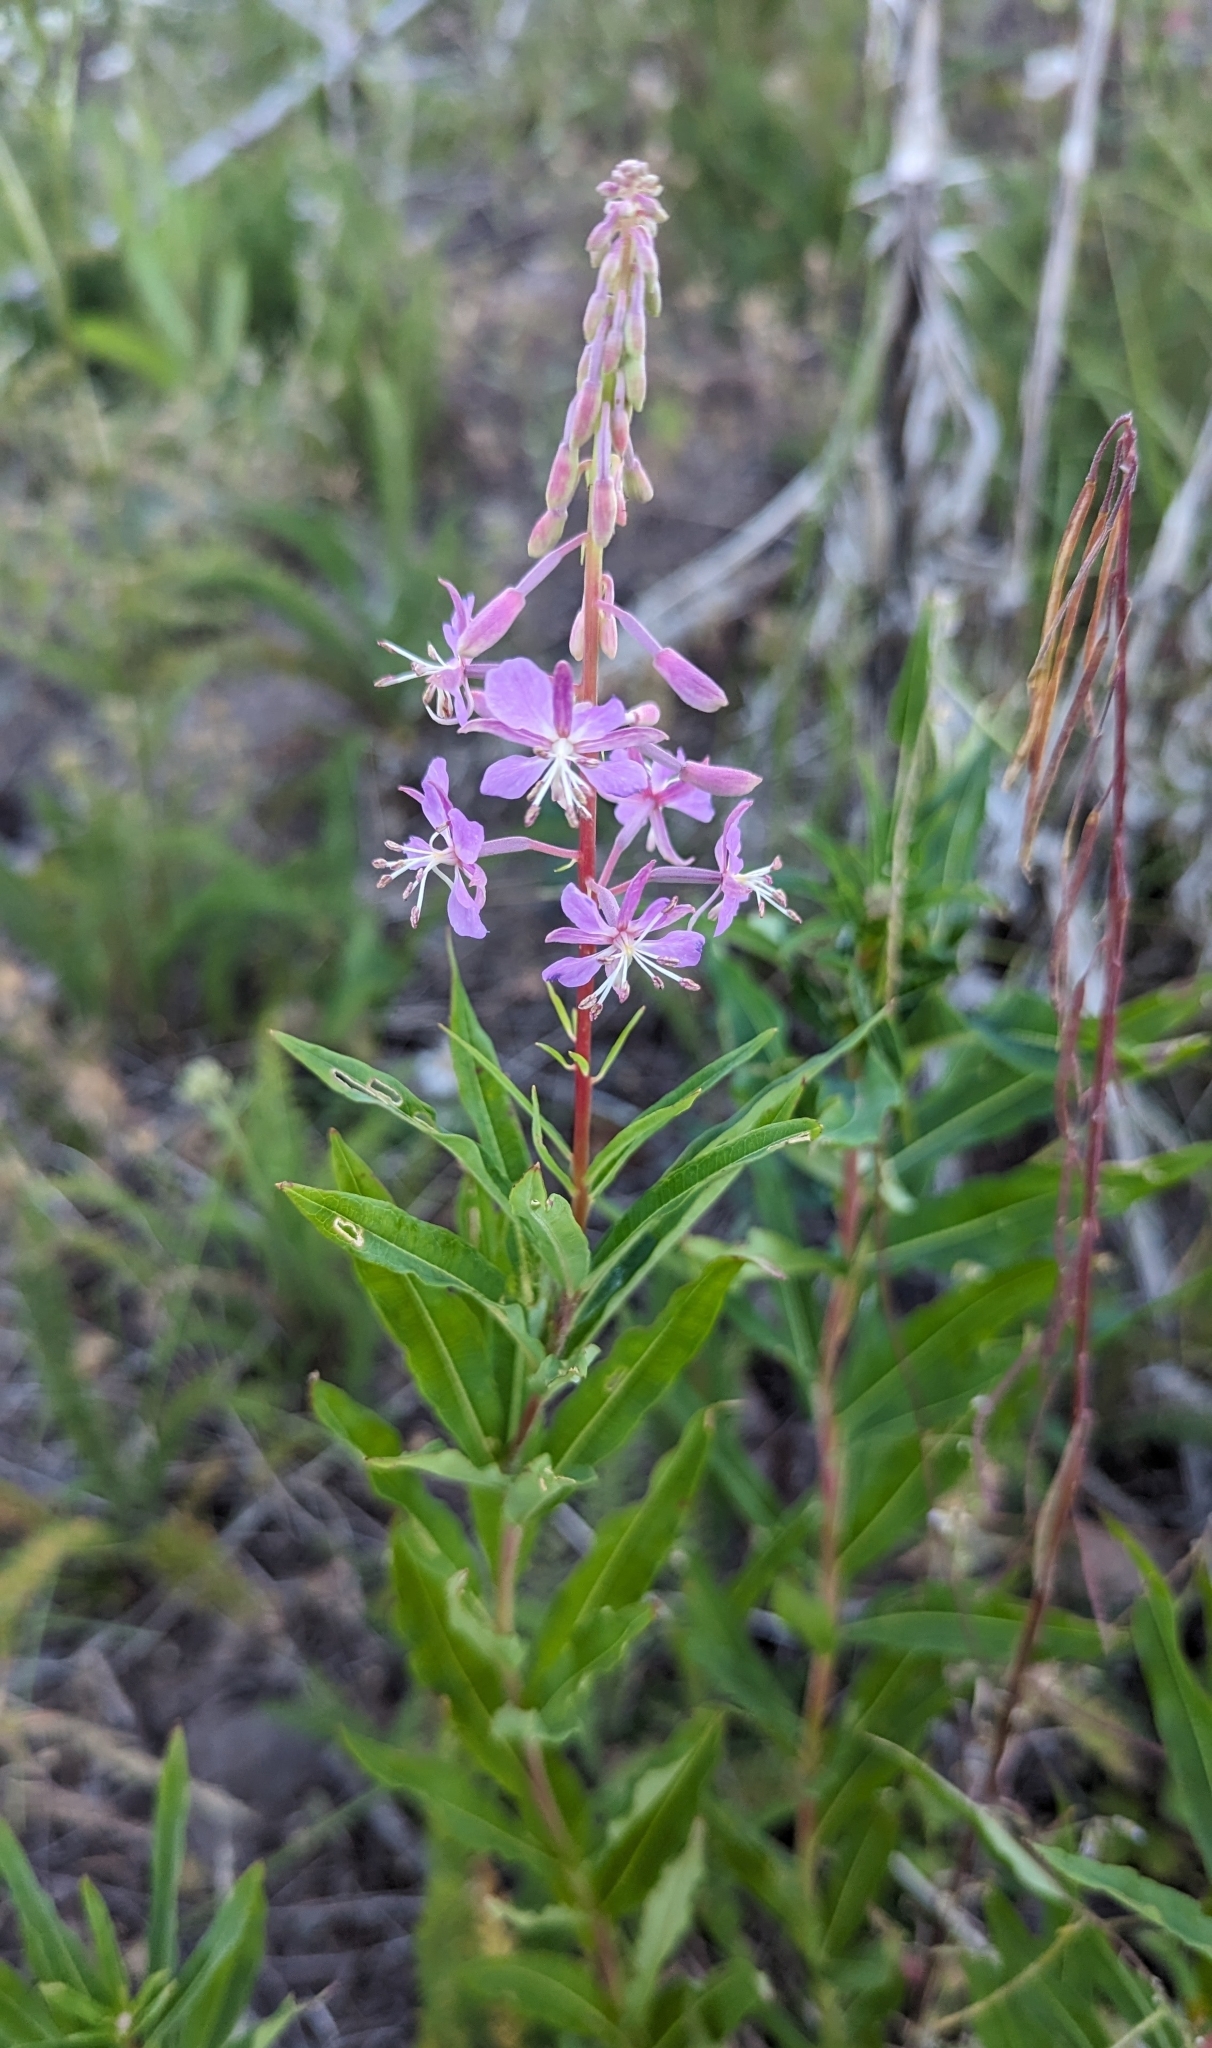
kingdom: Plantae
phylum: Tracheophyta
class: Magnoliopsida
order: Myrtales
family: Onagraceae
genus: Chamaenerion
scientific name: Chamaenerion angustifolium
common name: Fireweed
